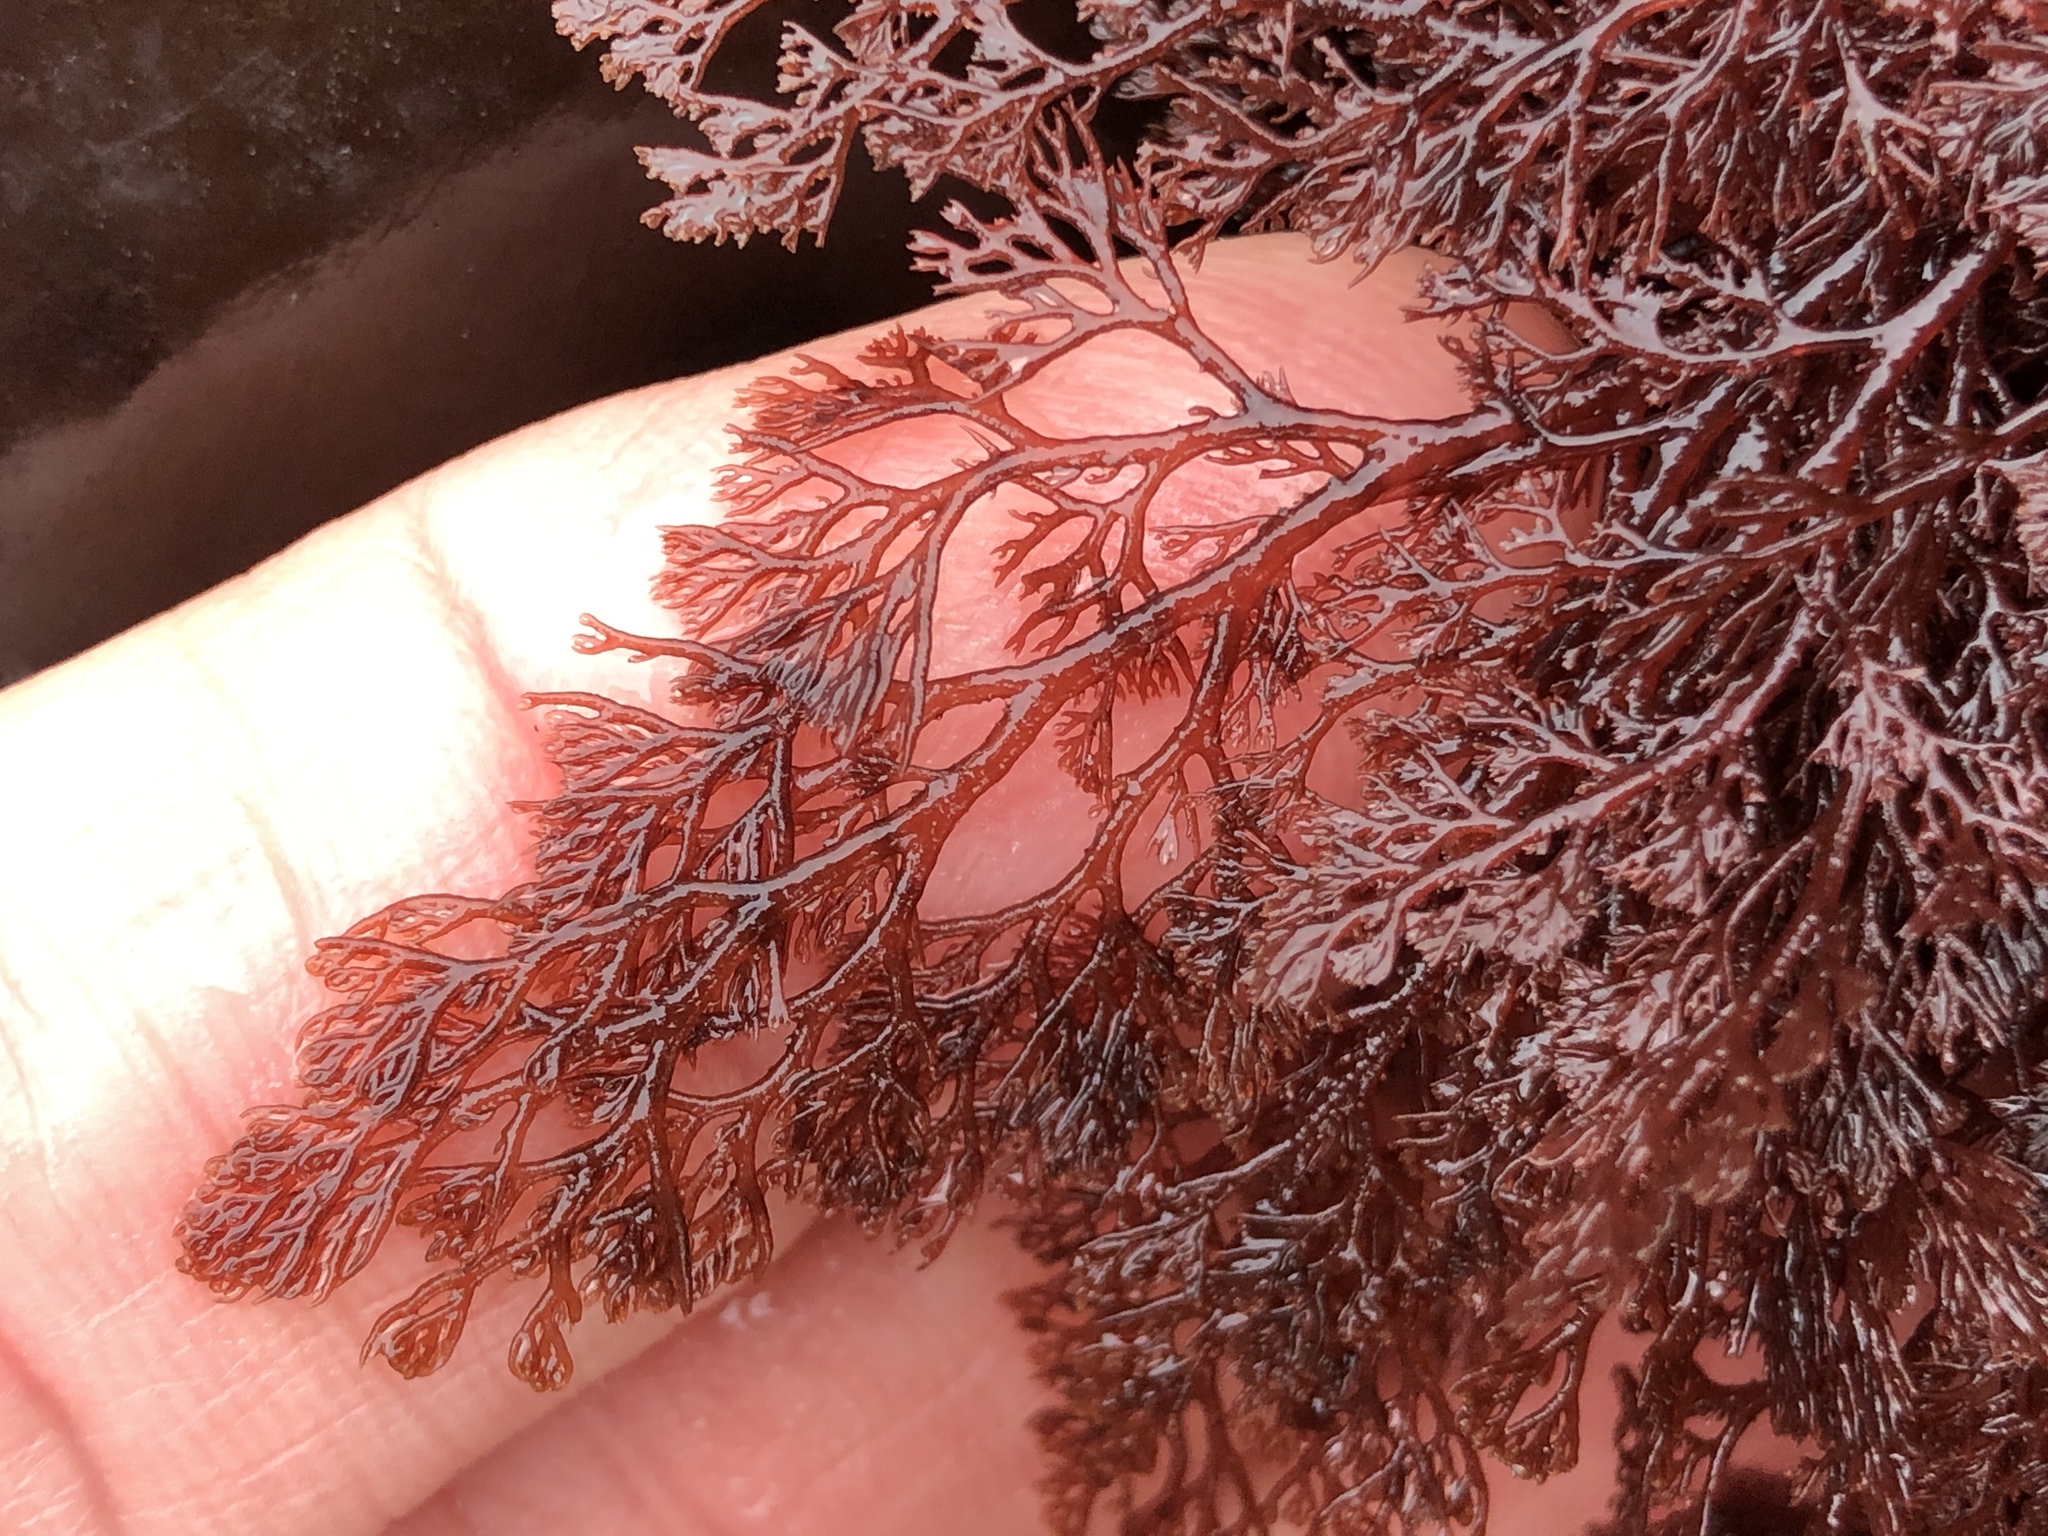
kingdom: Plantae
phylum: Rhodophyta
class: Florideophyceae
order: Ceramiales
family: Ceramiaceae
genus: Microcladia
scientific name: Microcladia coulteri
